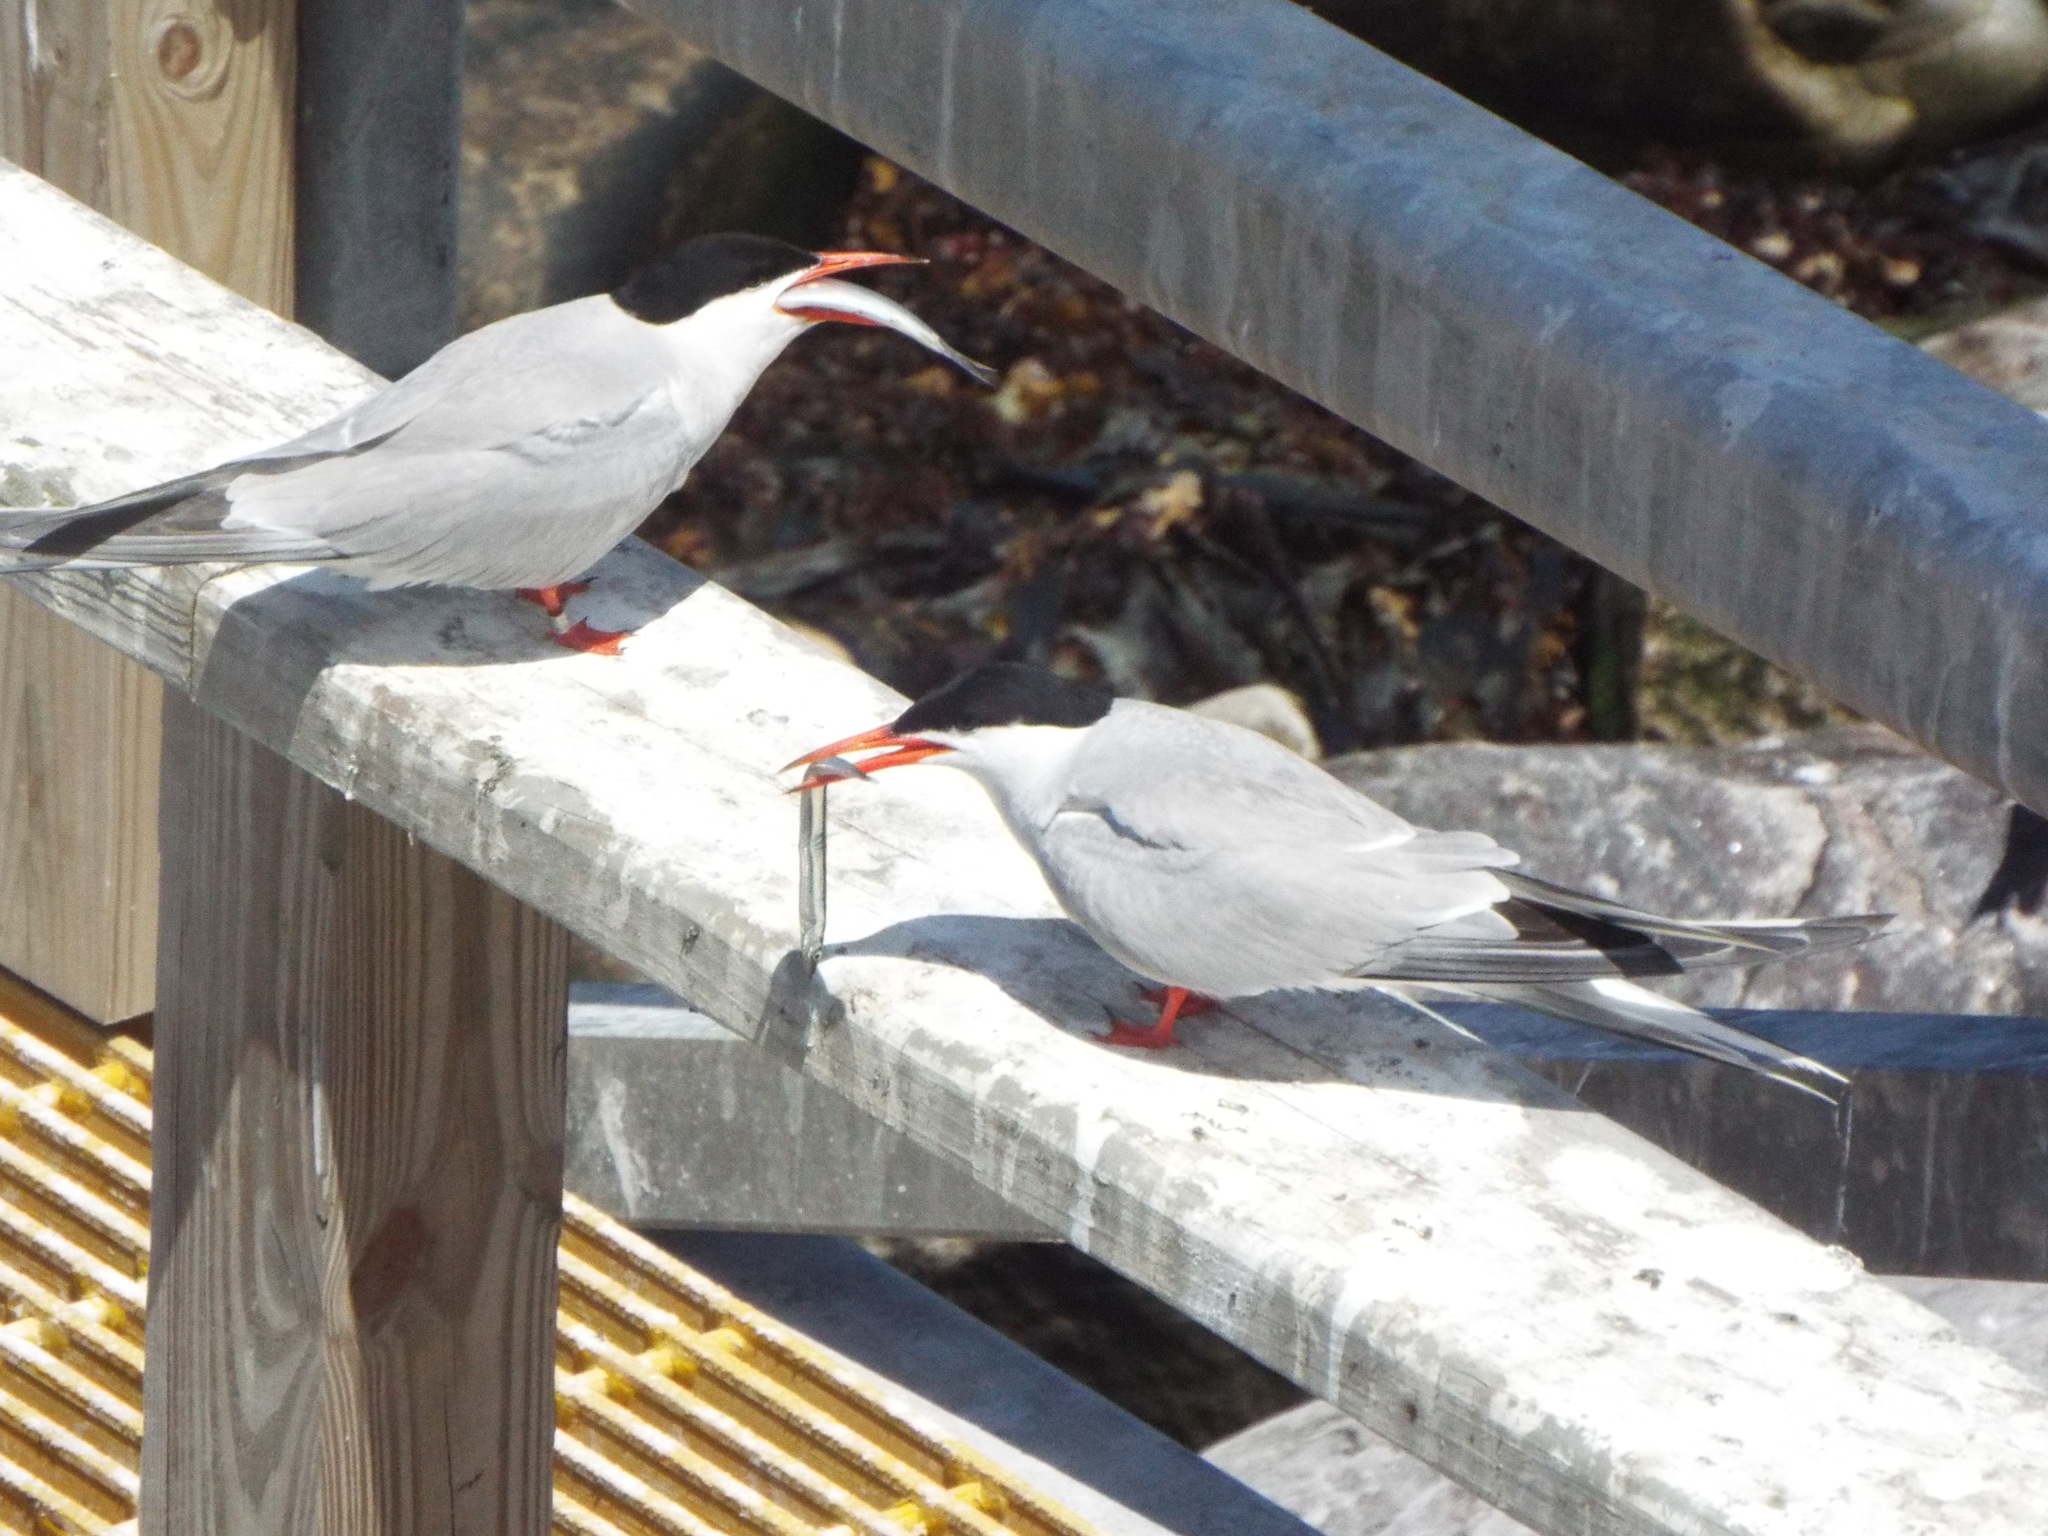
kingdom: Animalia
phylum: Chordata
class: Aves
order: Charadriiformes
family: Laridae
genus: Sterna
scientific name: Sterna hirundo
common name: Common tern
